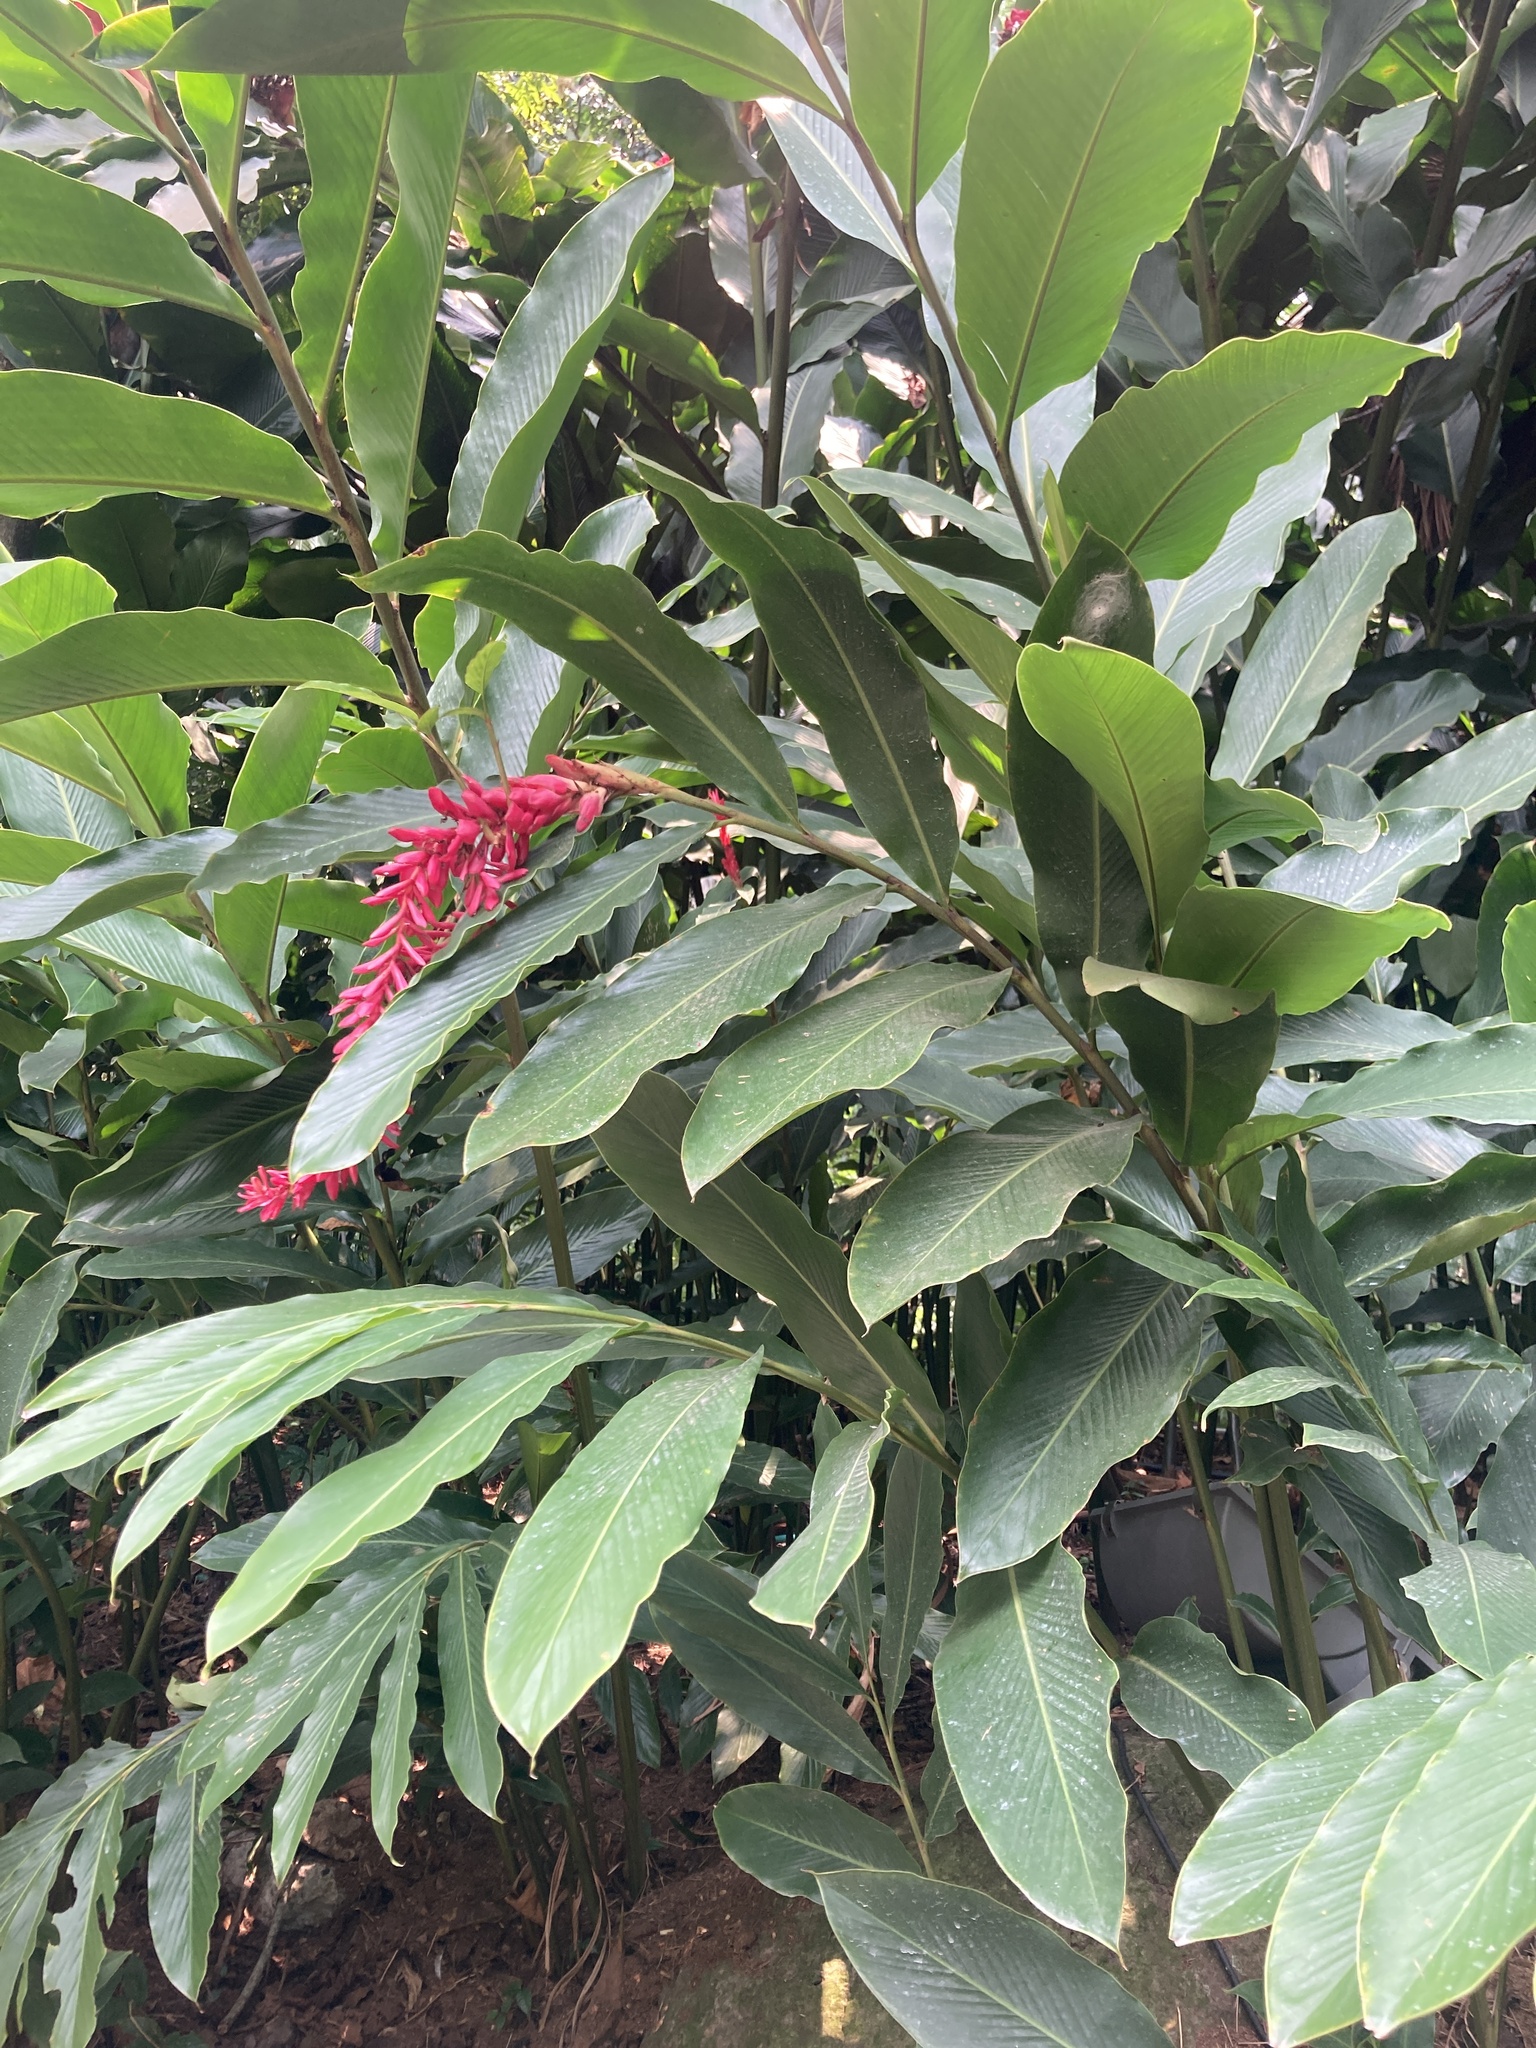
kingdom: Plantae
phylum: Tracheophyta
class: Liliopsida
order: Zingiberales
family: Zingiberaceae
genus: Alpinia
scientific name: Alpinia purpurata
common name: Red ginger
